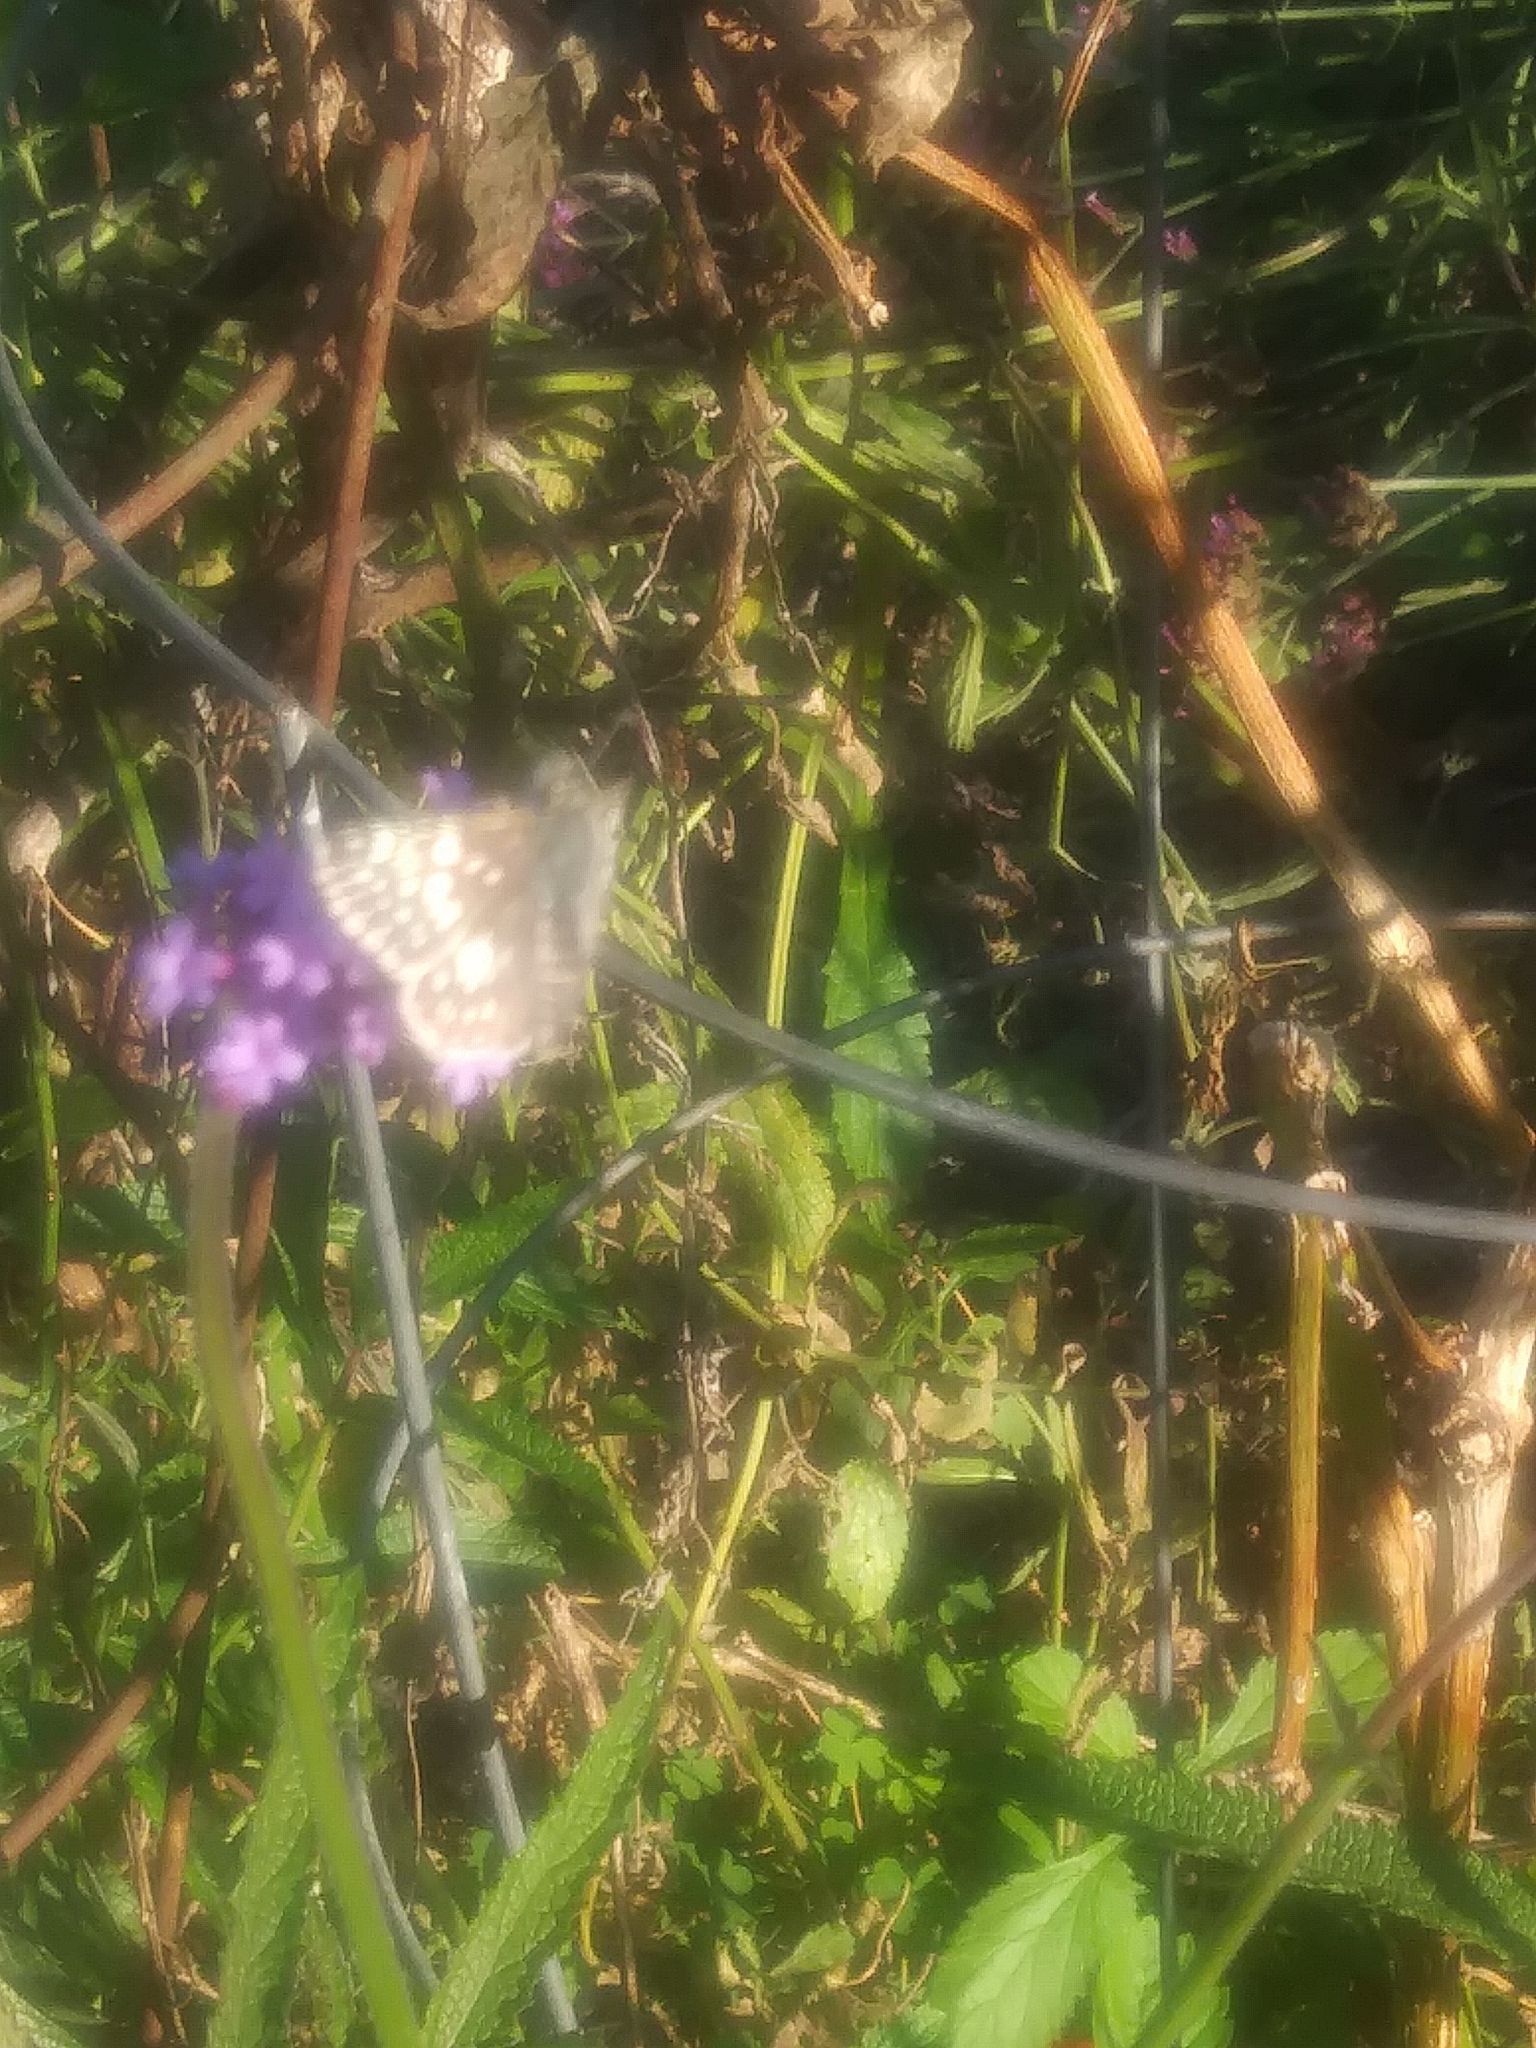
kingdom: Animalia
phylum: Arthropoda
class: Insecta
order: Lepidoptera
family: Hesperiidae
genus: Burnsius
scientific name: Burnsius communis
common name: Common checkered-skipper
